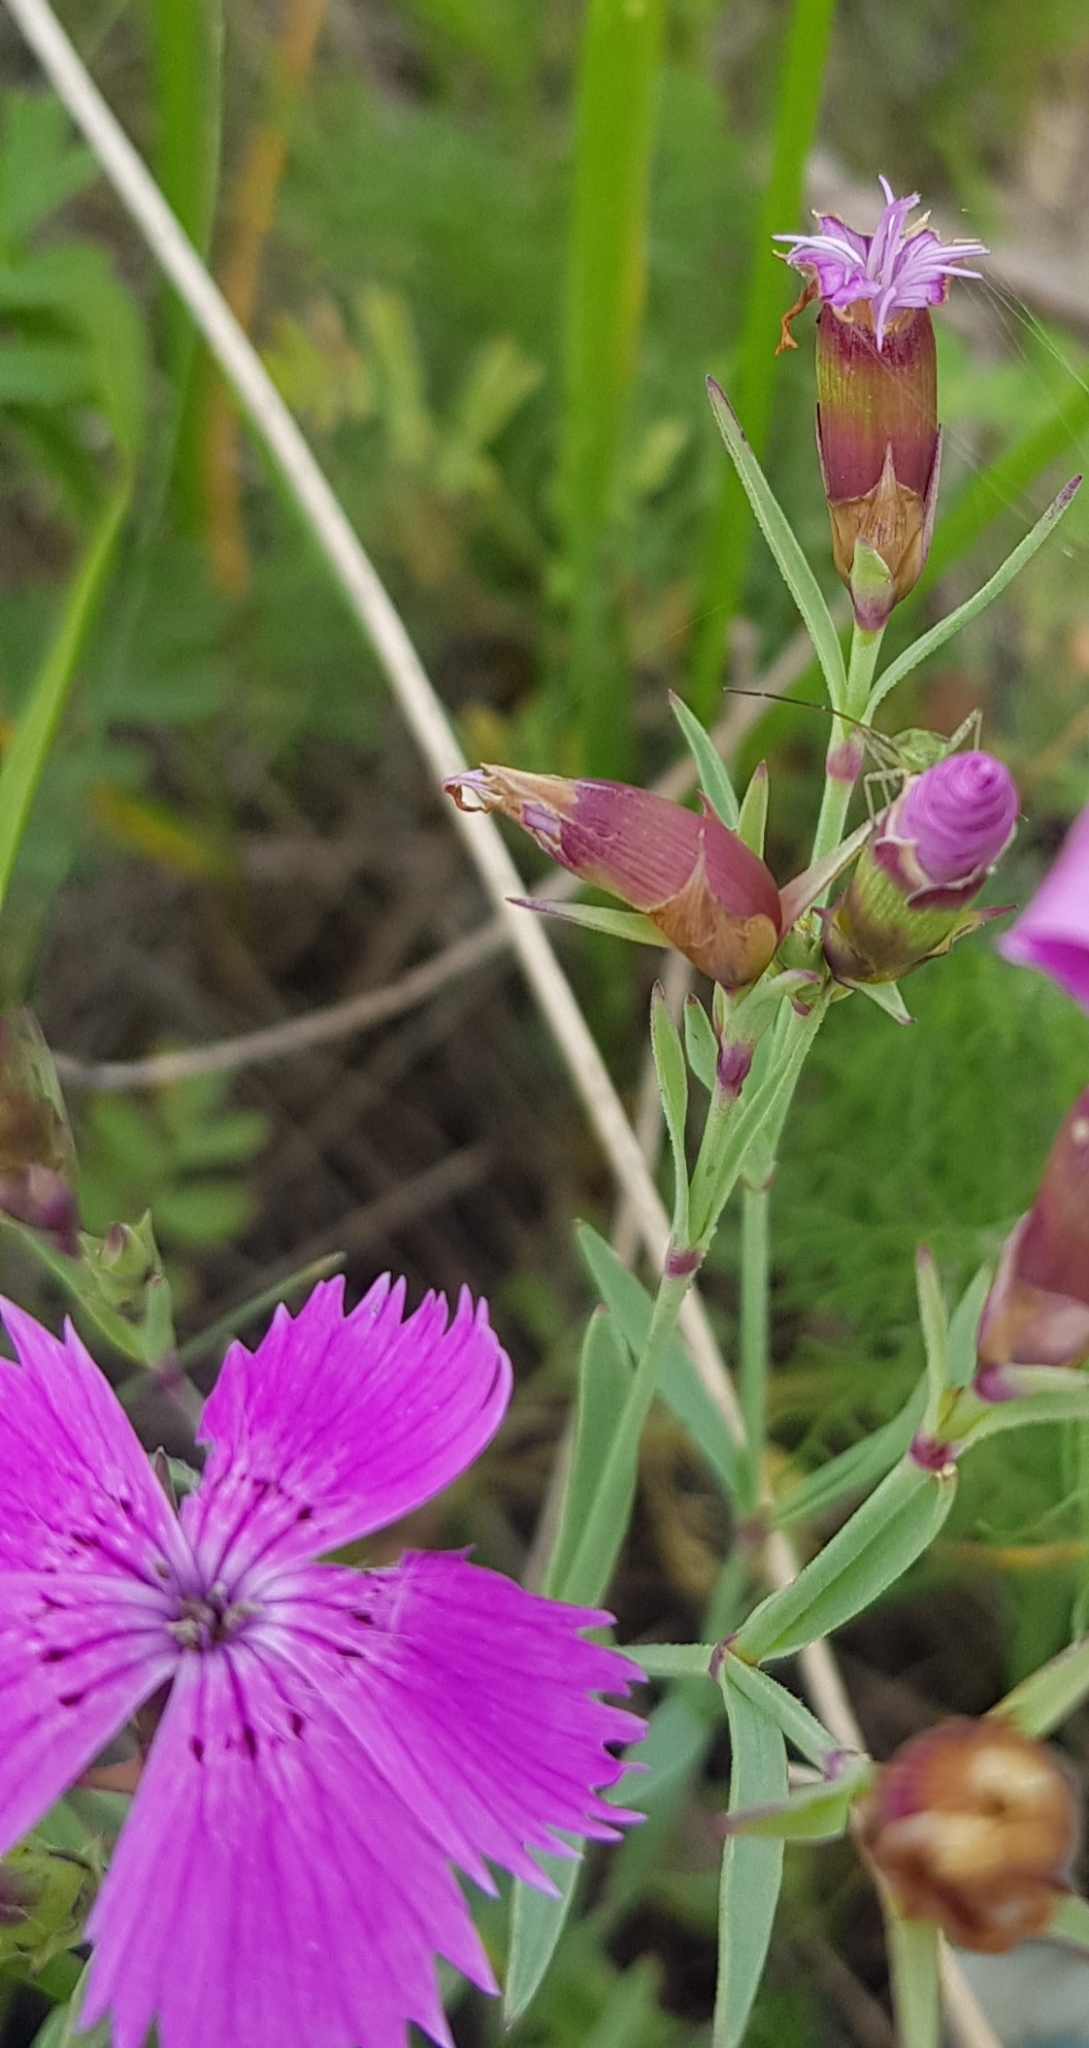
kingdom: Plantae
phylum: Tracheophyta
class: Magnoliopsida
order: Caryophyllales
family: Caryophyllaceae
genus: Dianthus
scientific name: Dianthus chinensis
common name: Rainbow pink
